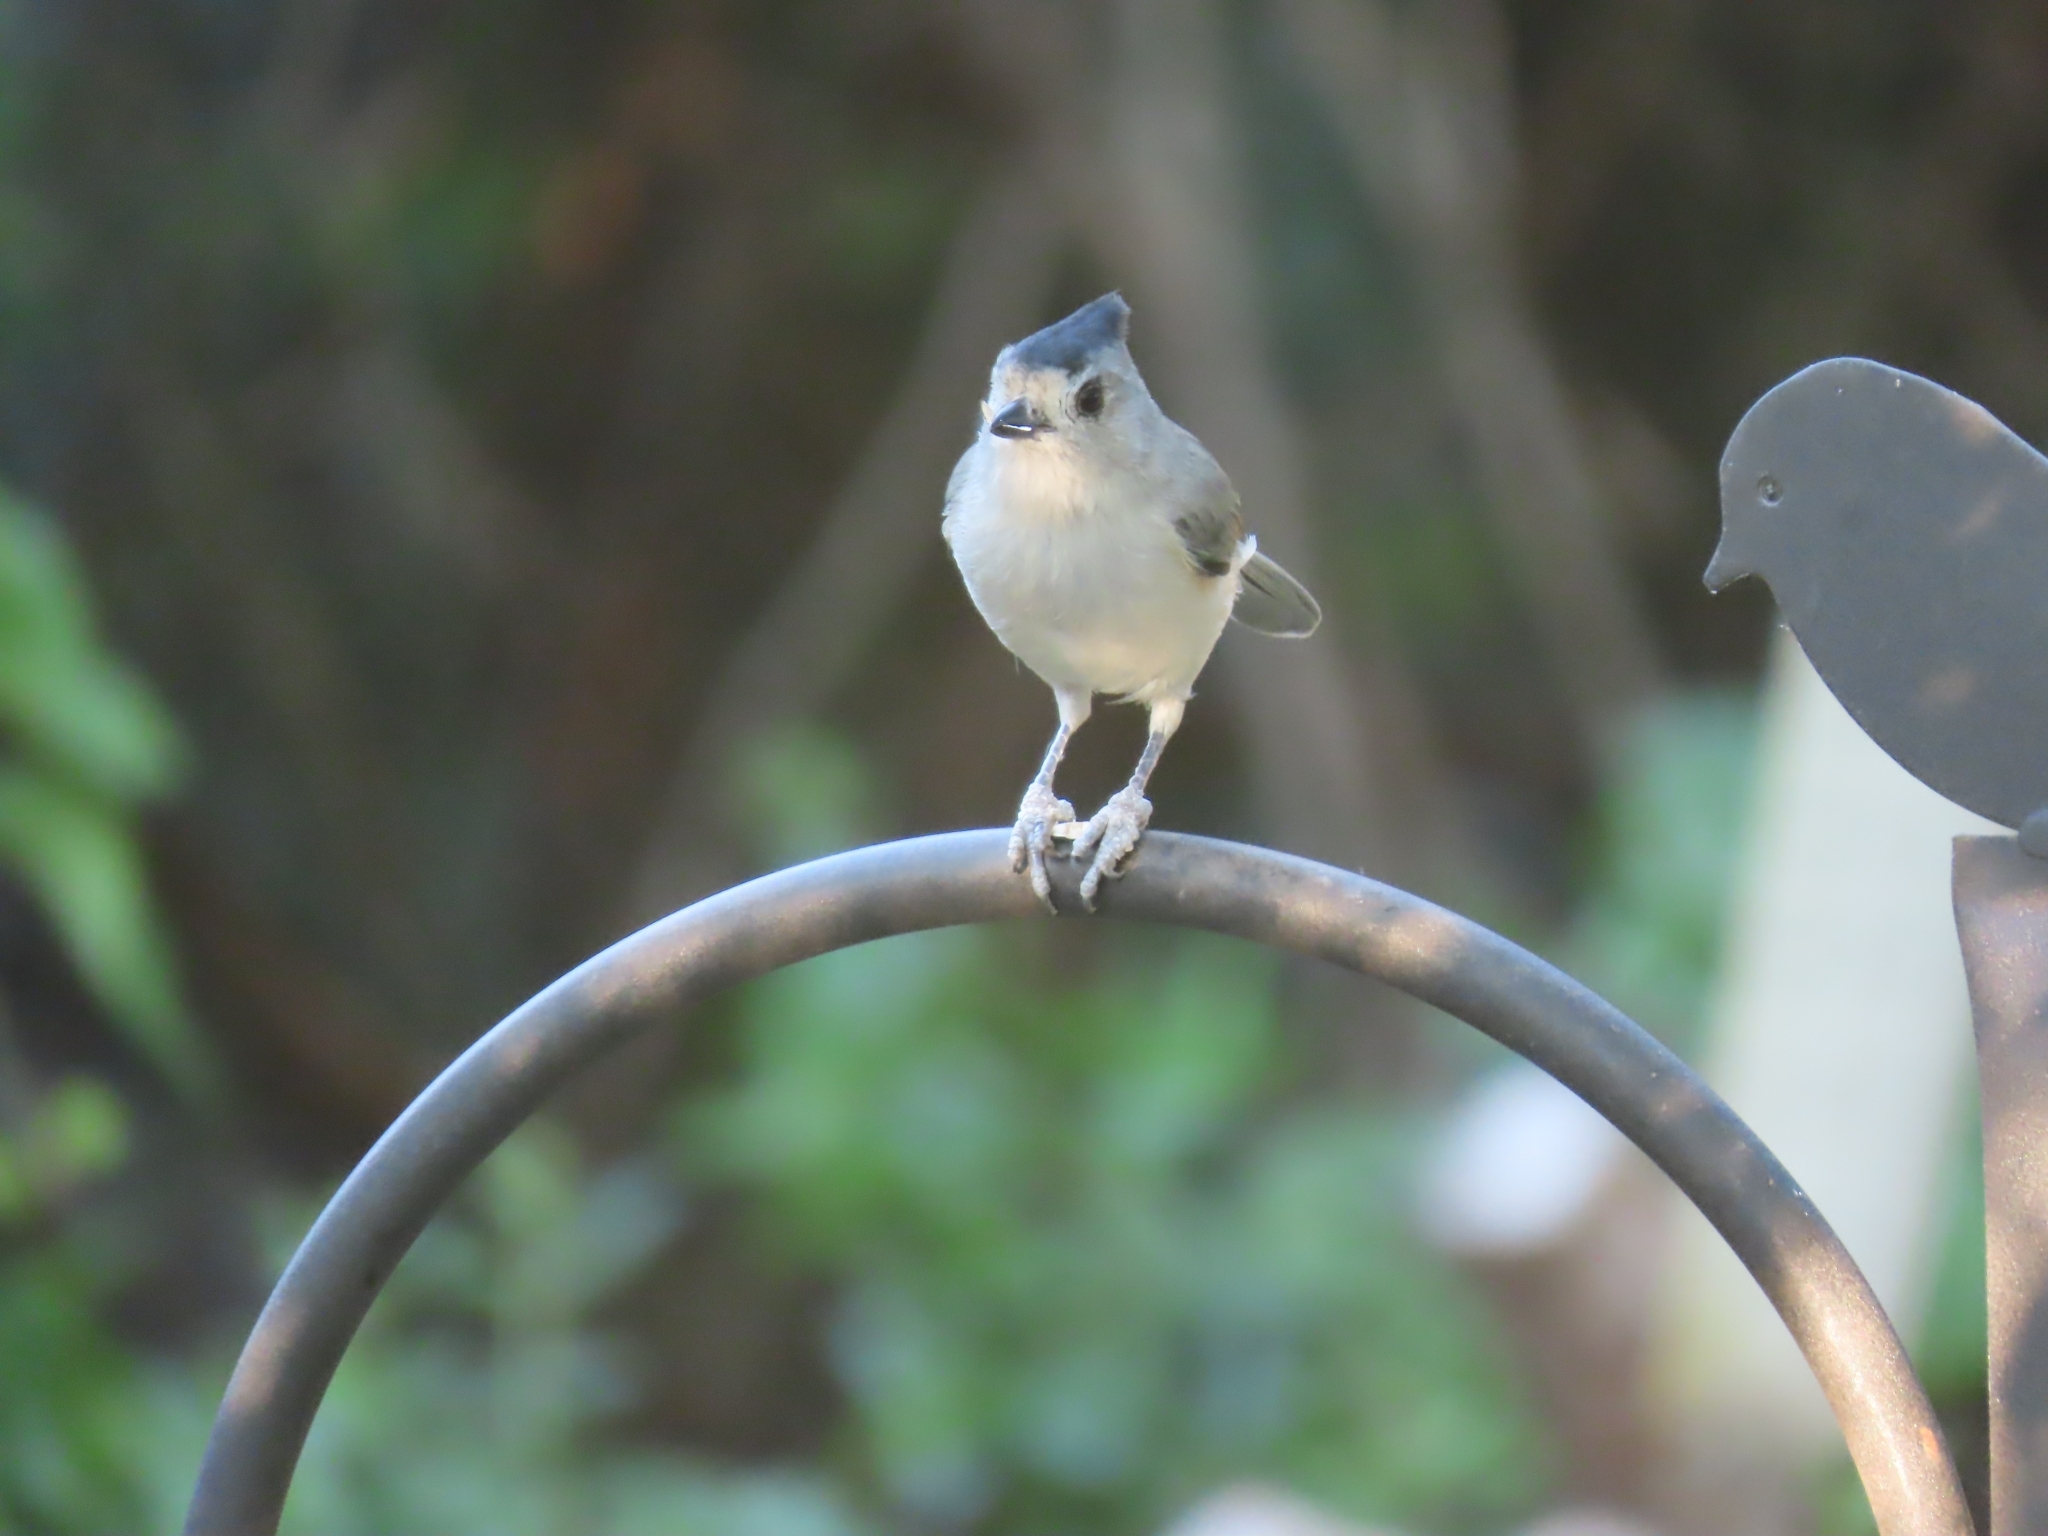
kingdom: Animalia
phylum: Chordata
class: Aves
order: Passeriformes
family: Paridae
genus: Baeolophus
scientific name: Baeolophus atricristatus
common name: Black-crested titmouse
